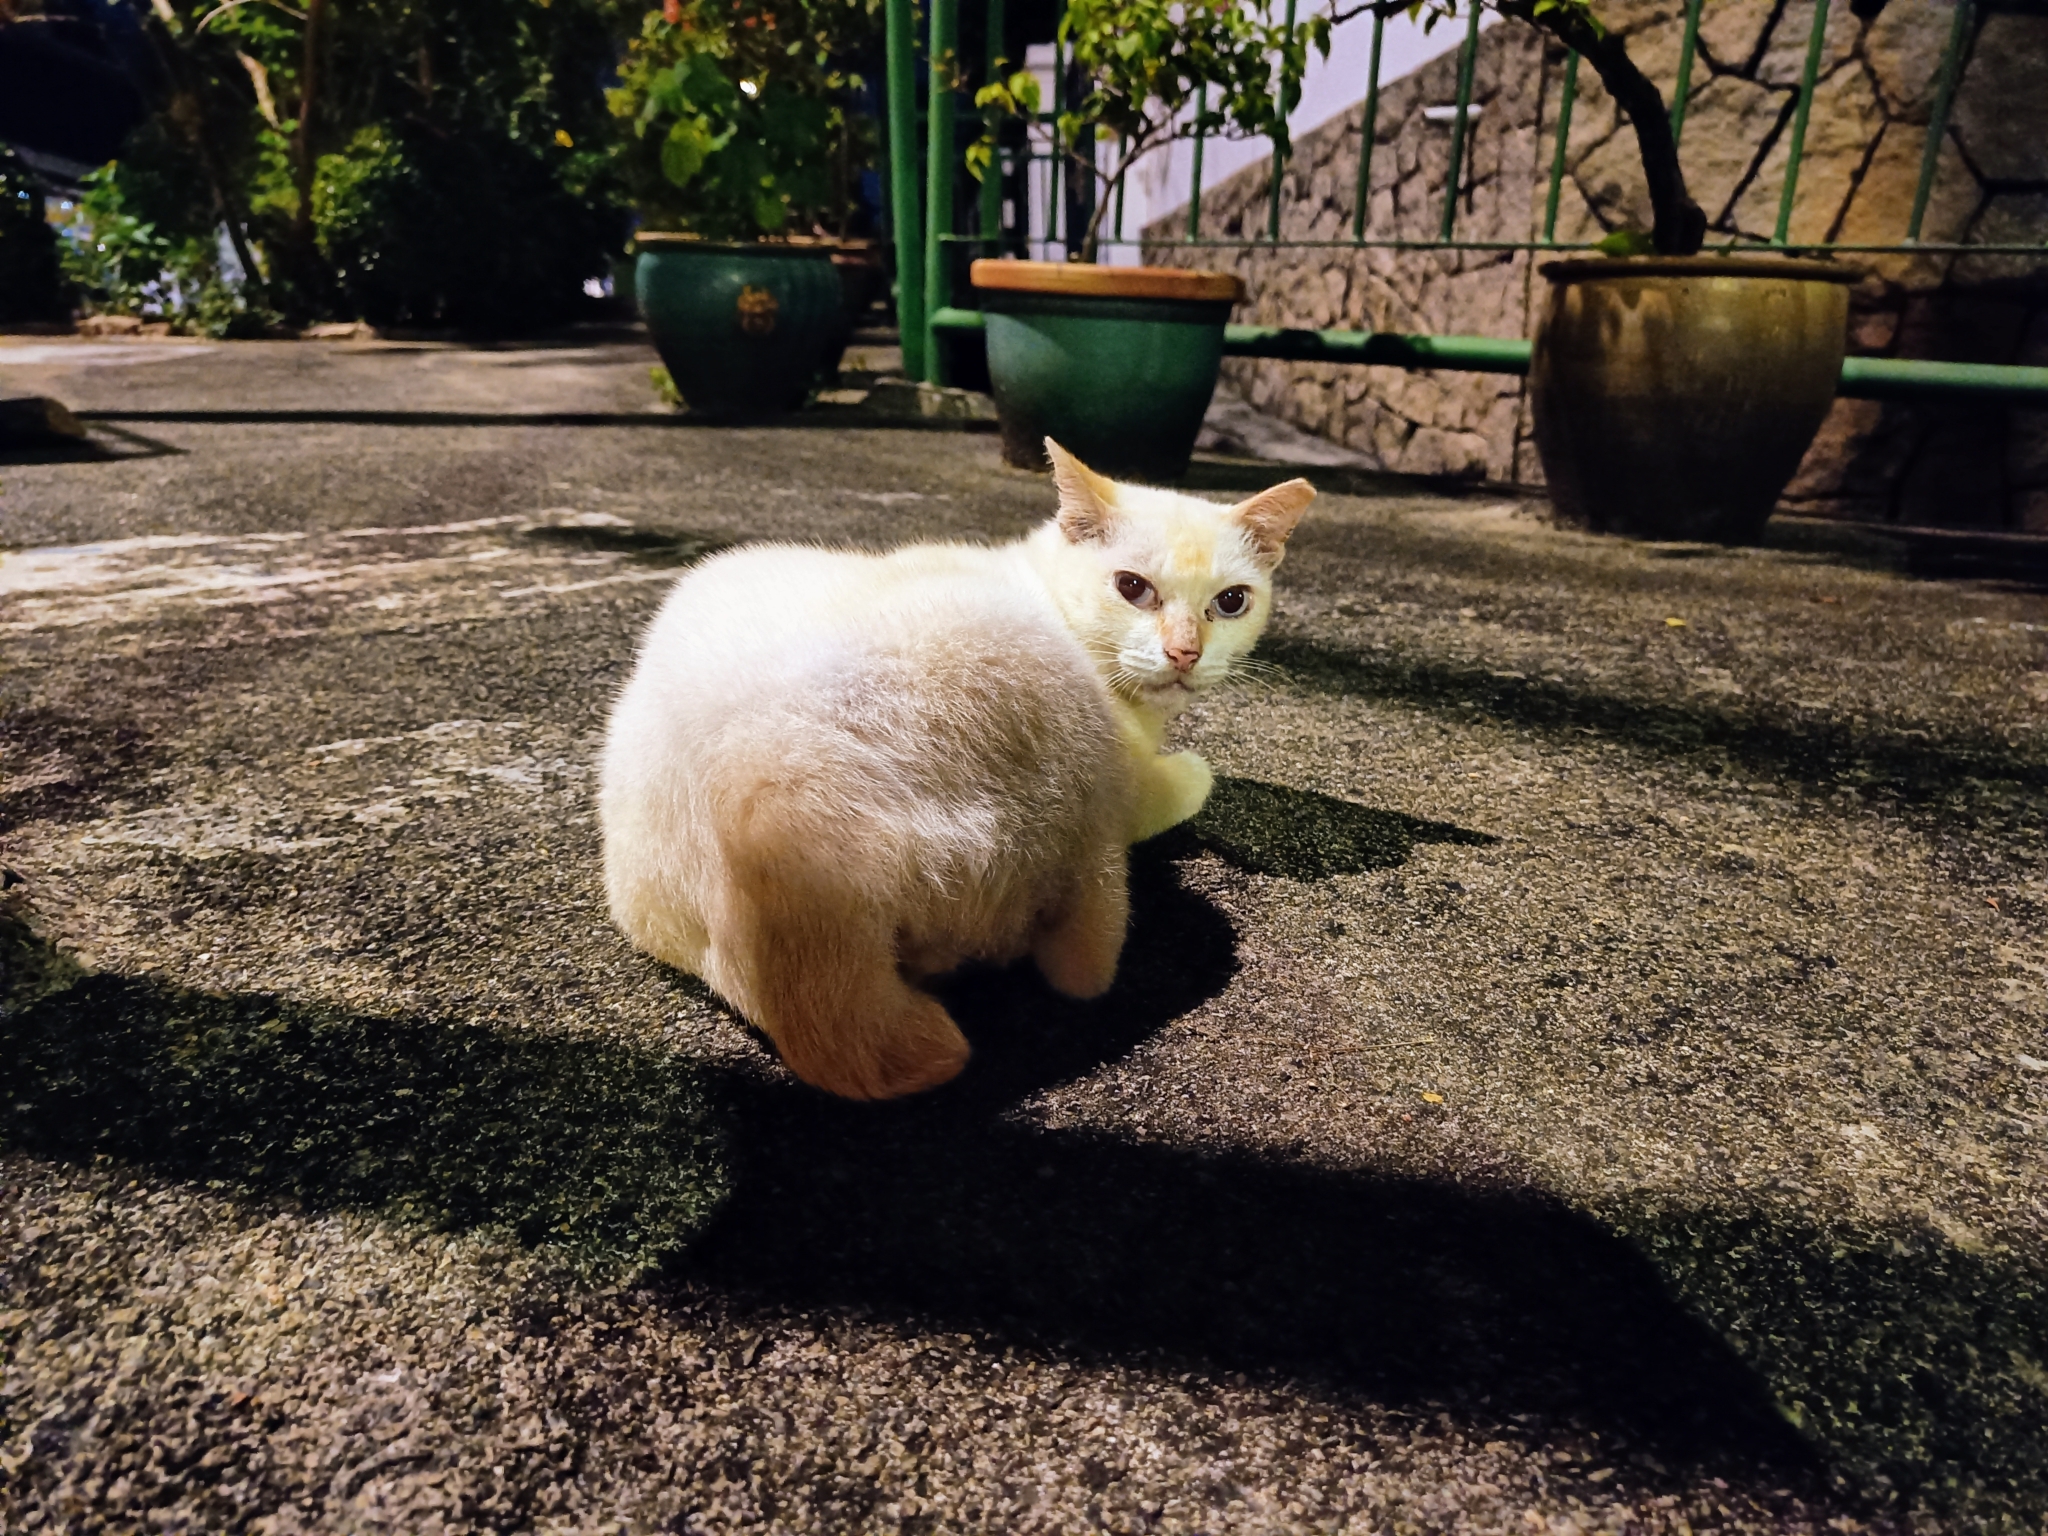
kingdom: Animalia
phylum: Chordata
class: Mammalia
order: Carnivora
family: Felidae
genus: Felis
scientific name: Felis catus
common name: Domestic cat
